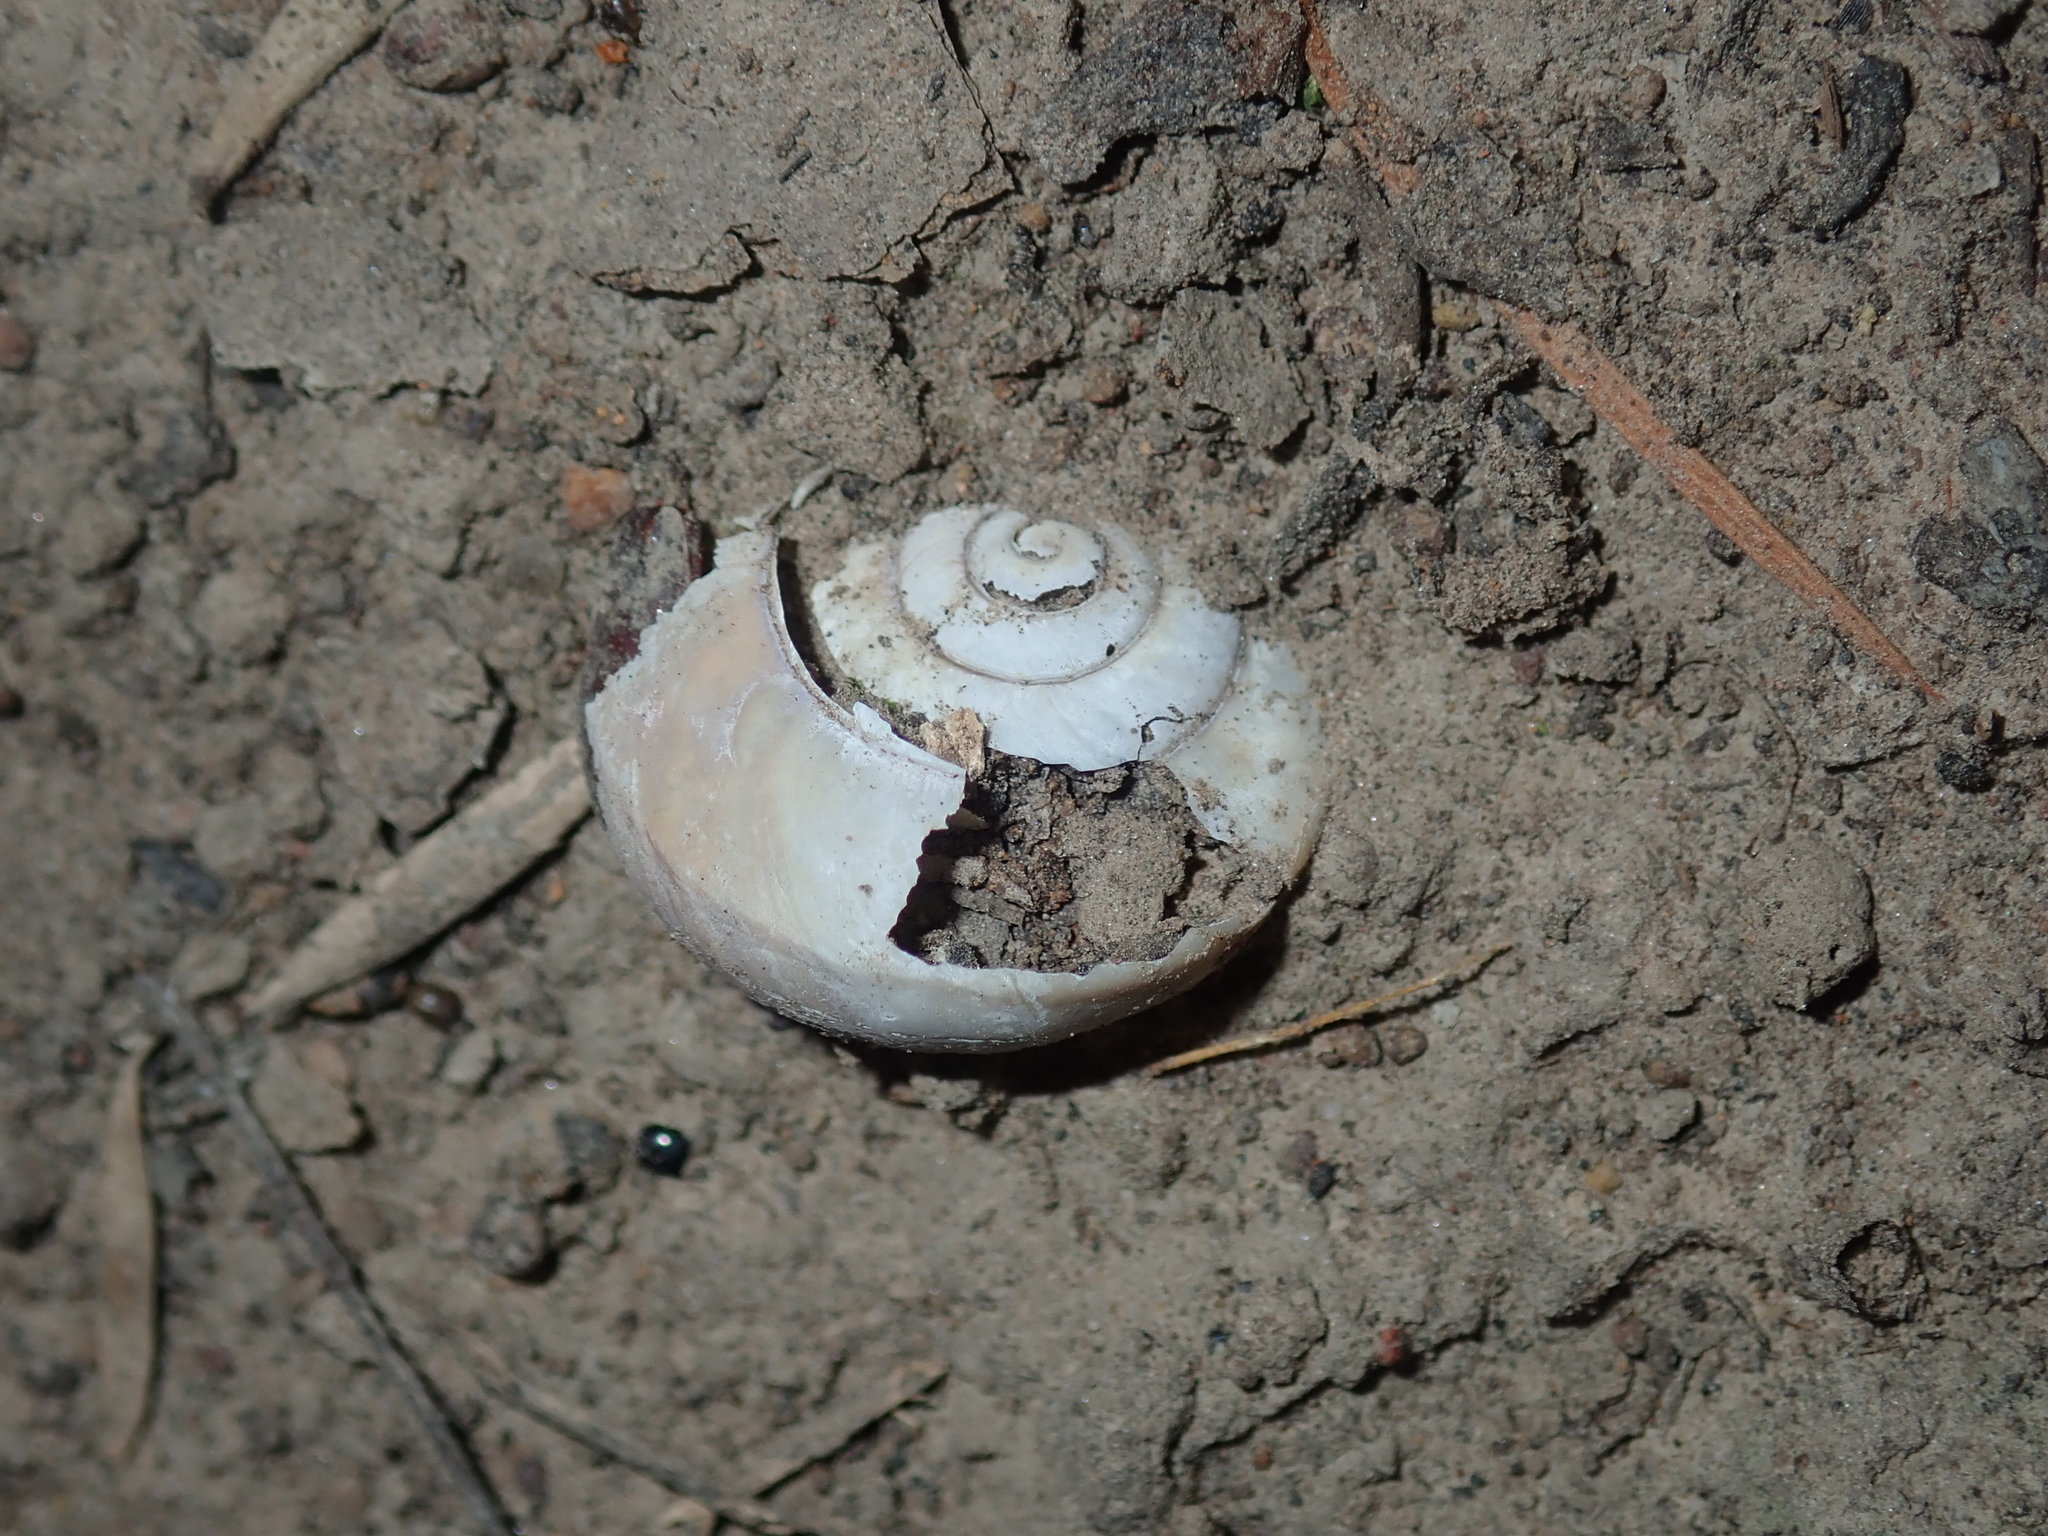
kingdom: Animalia
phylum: Mollusca
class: Gastropoda
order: Stylommatophora
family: Camaenidae
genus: Sauroconcha
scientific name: Sauroconcha sheai
